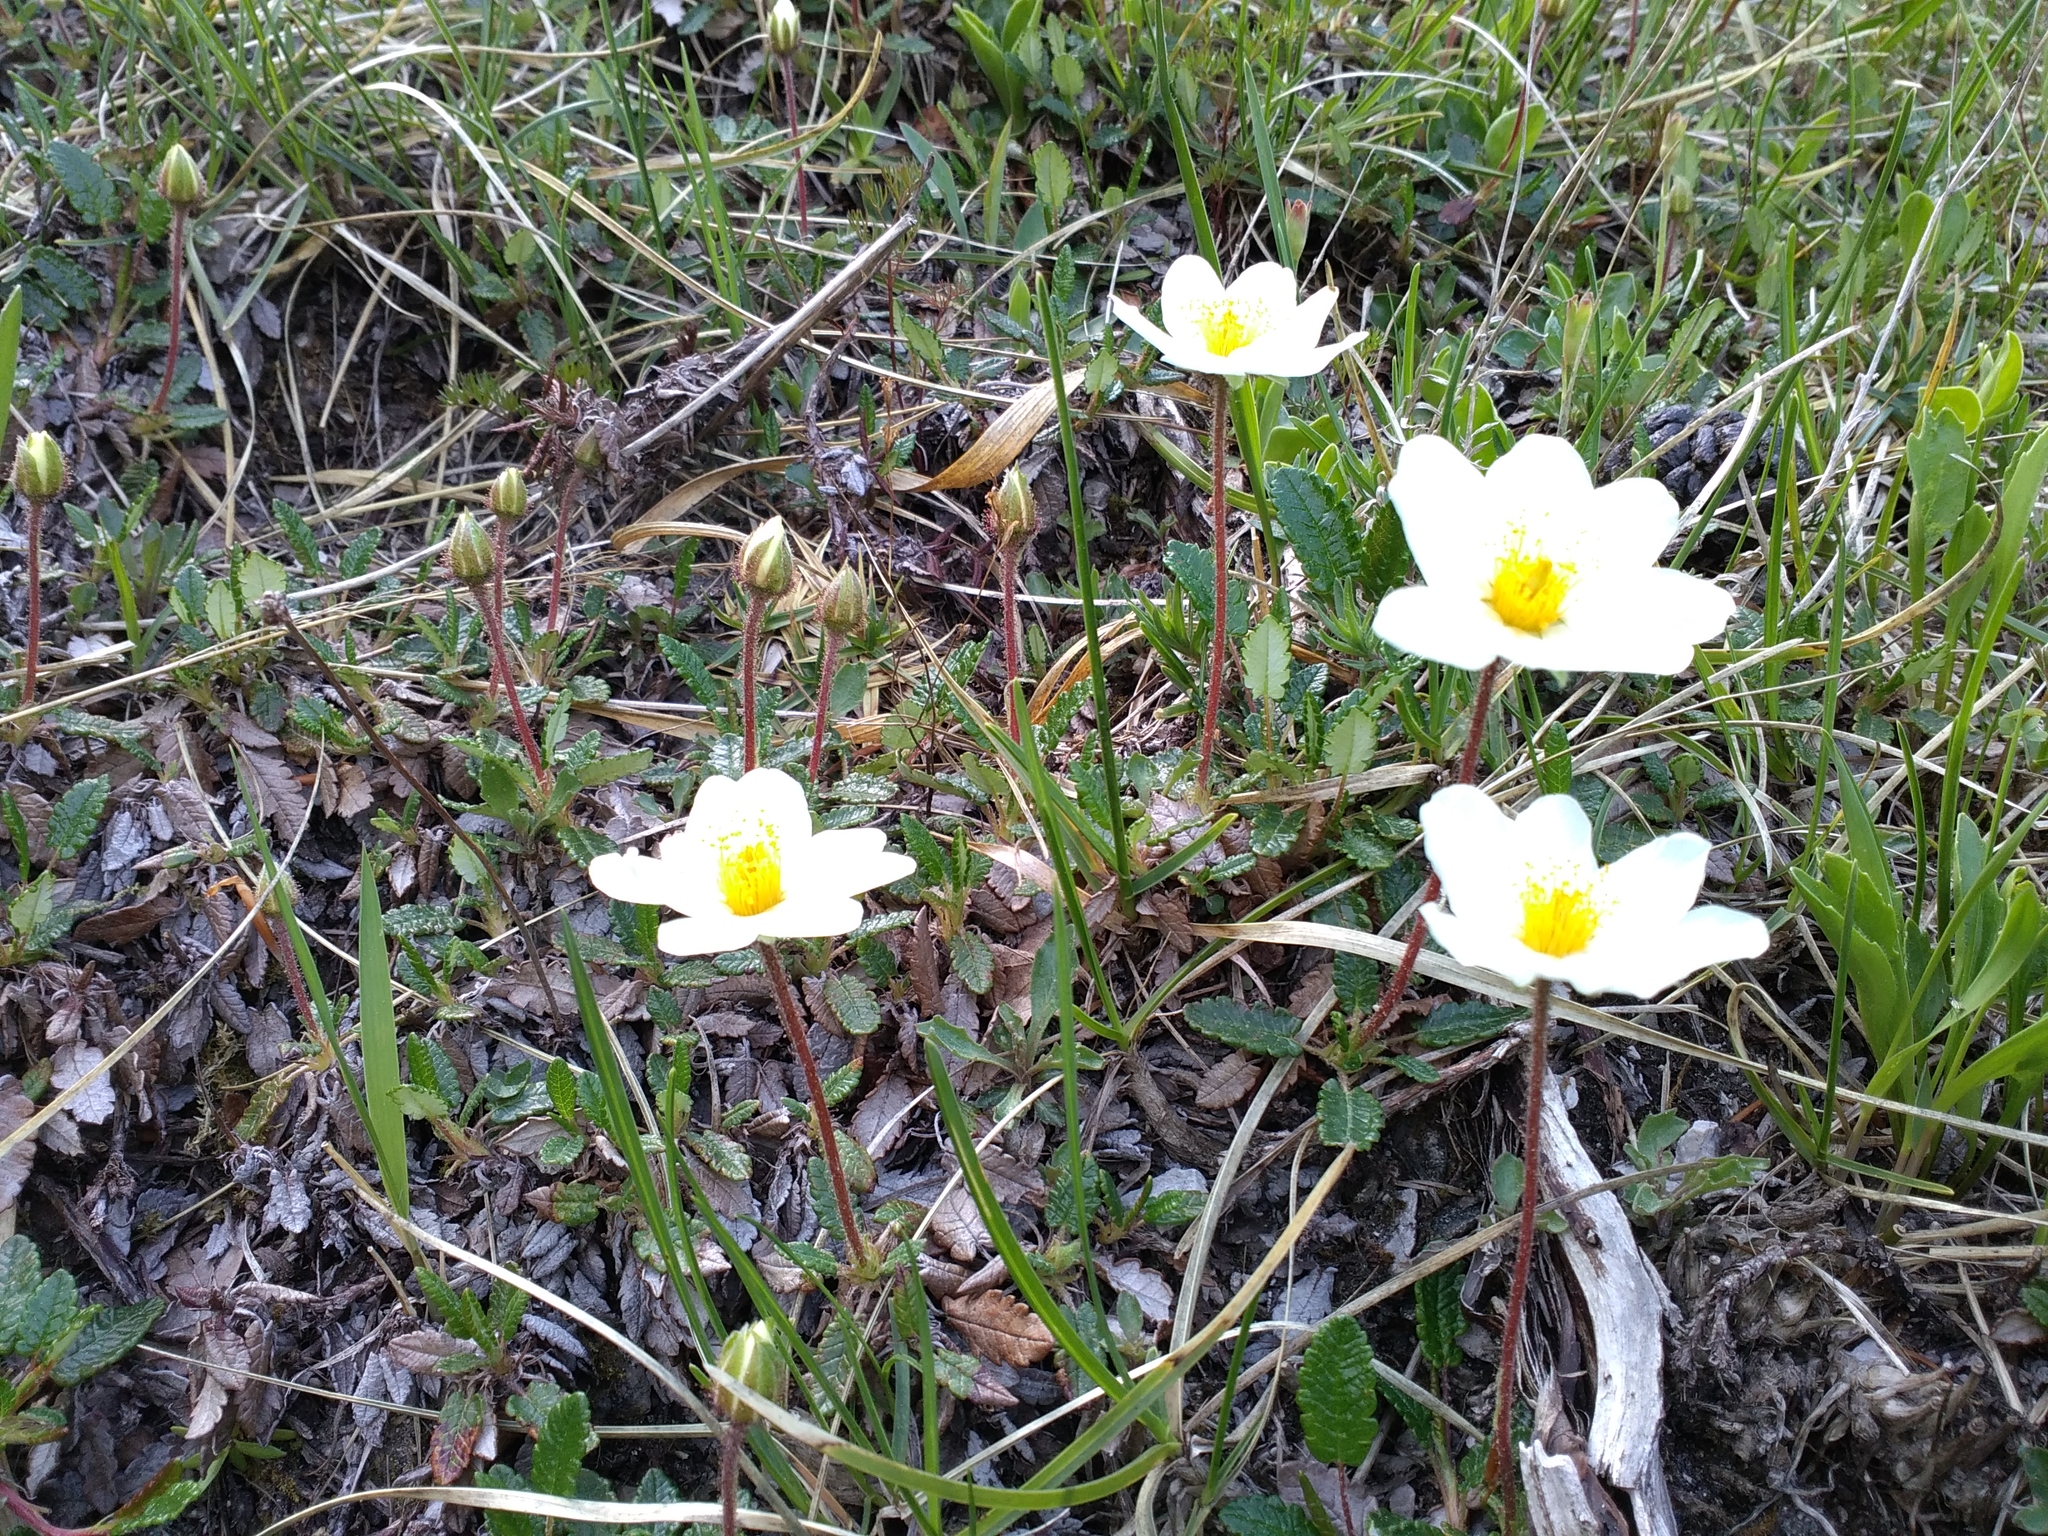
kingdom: Plantae
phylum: Tracheophyta
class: Magnoliopsida
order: Rosales
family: Rosaceae
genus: Dryas
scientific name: Dryas octopetala
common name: Eight-petal mountain-avens
